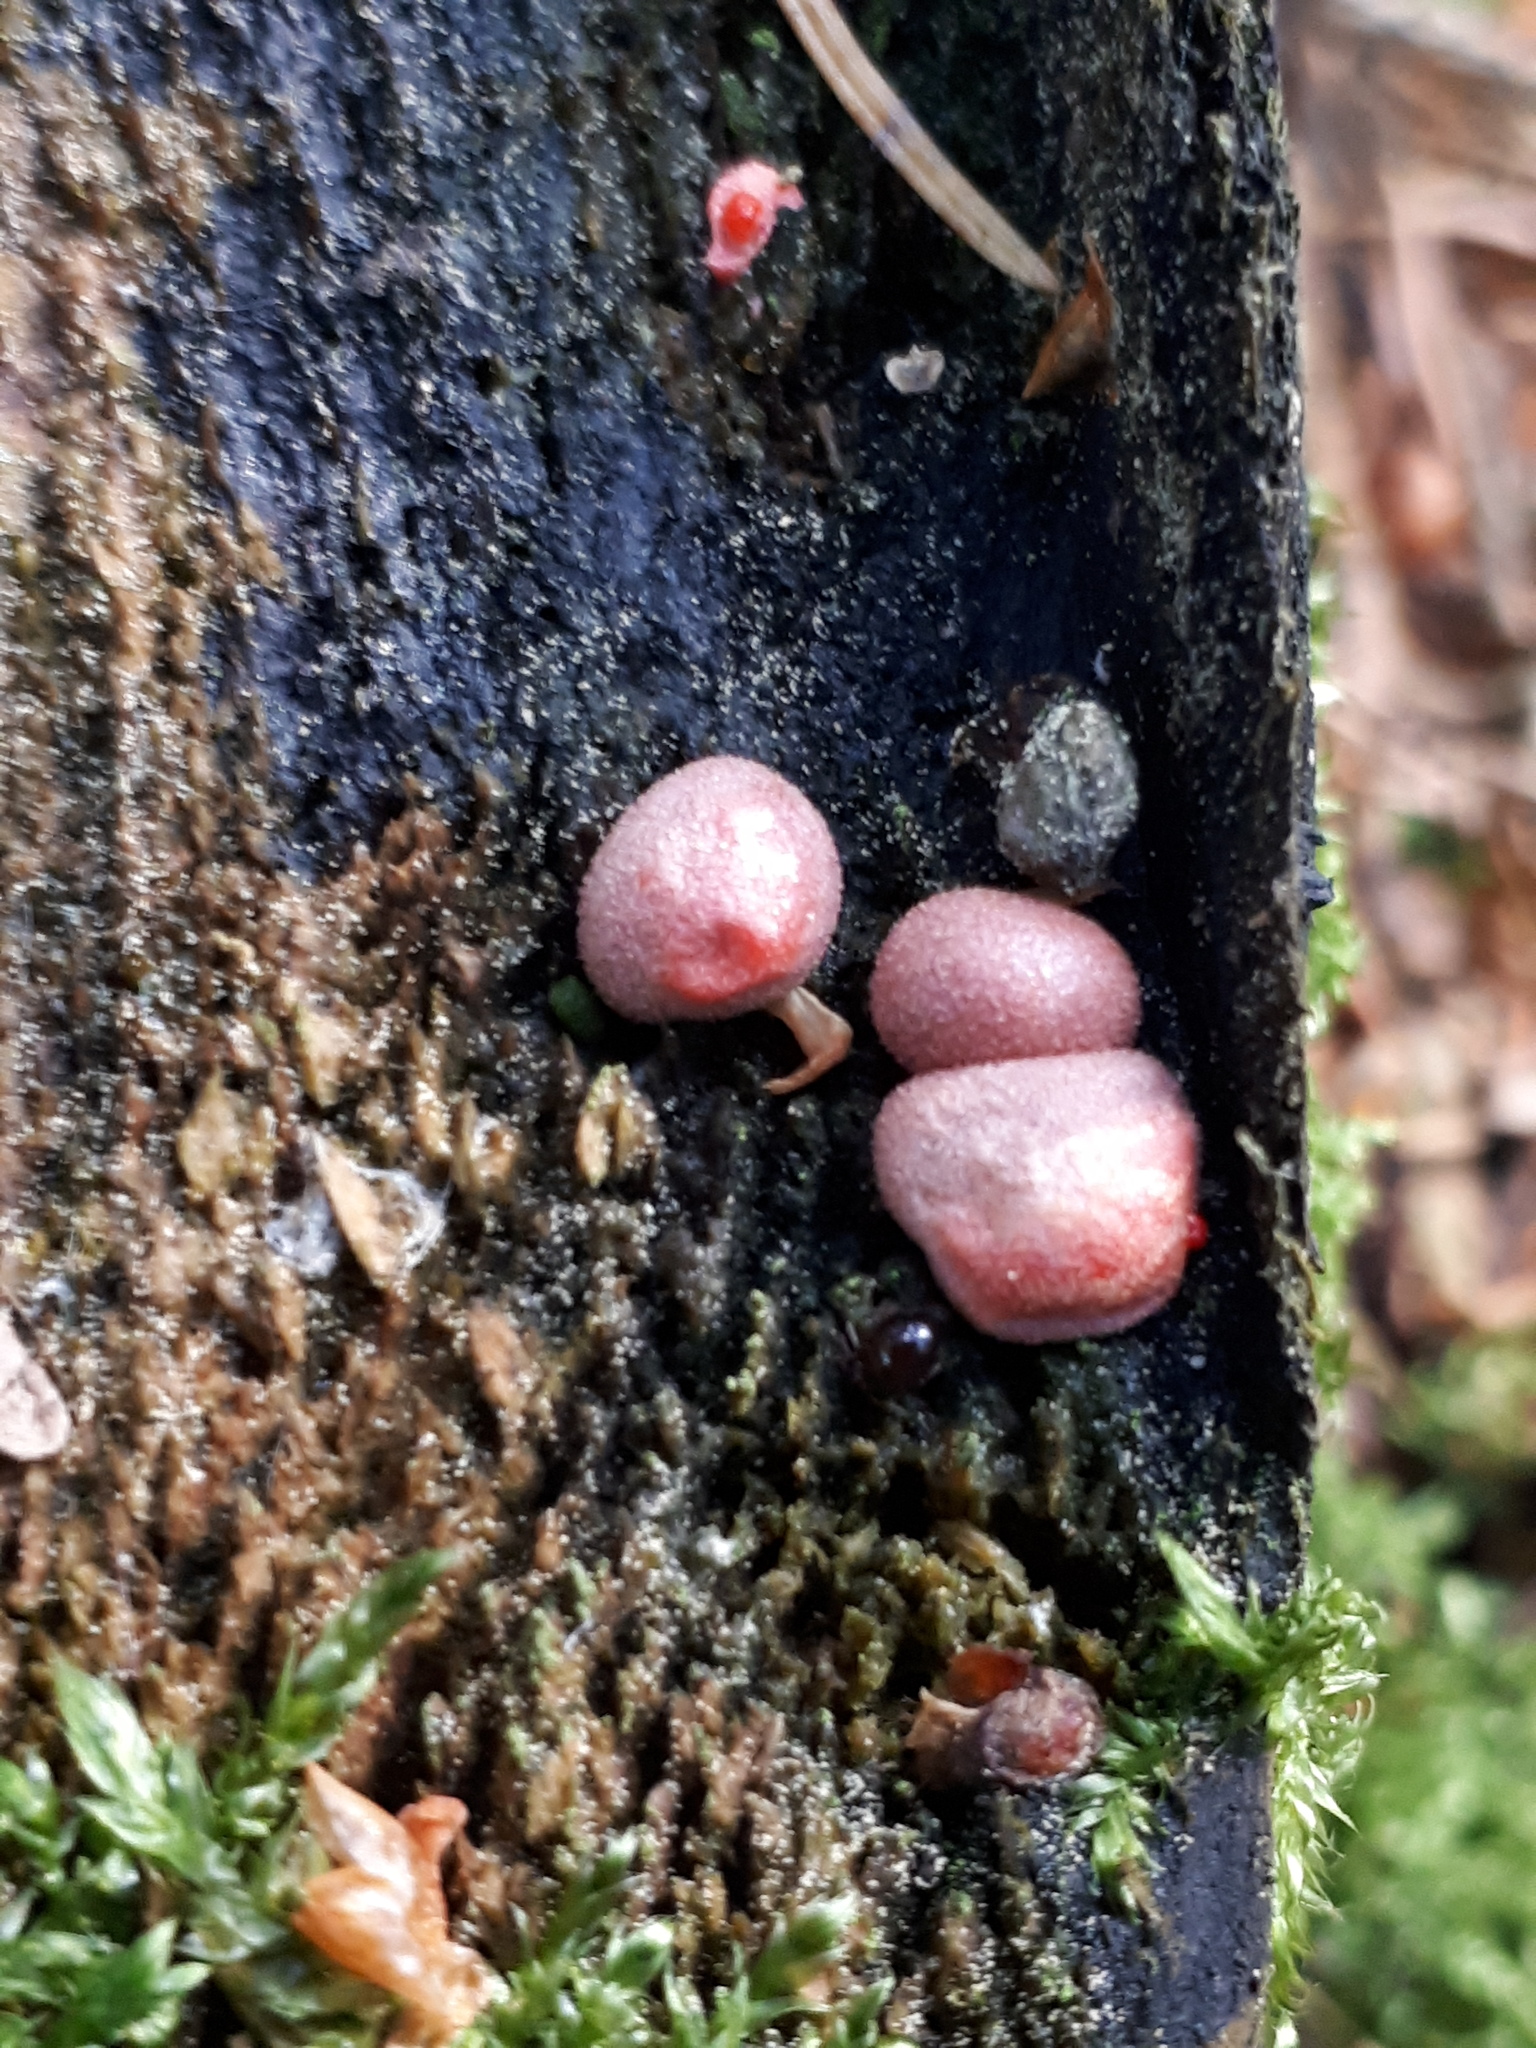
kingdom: Protozoa
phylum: Mycetozoa
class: Myxomycetes
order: Cribrariales
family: Tubiferaceae
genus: Lycogala
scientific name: Lycogala epidendrum
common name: Wolf's milk
